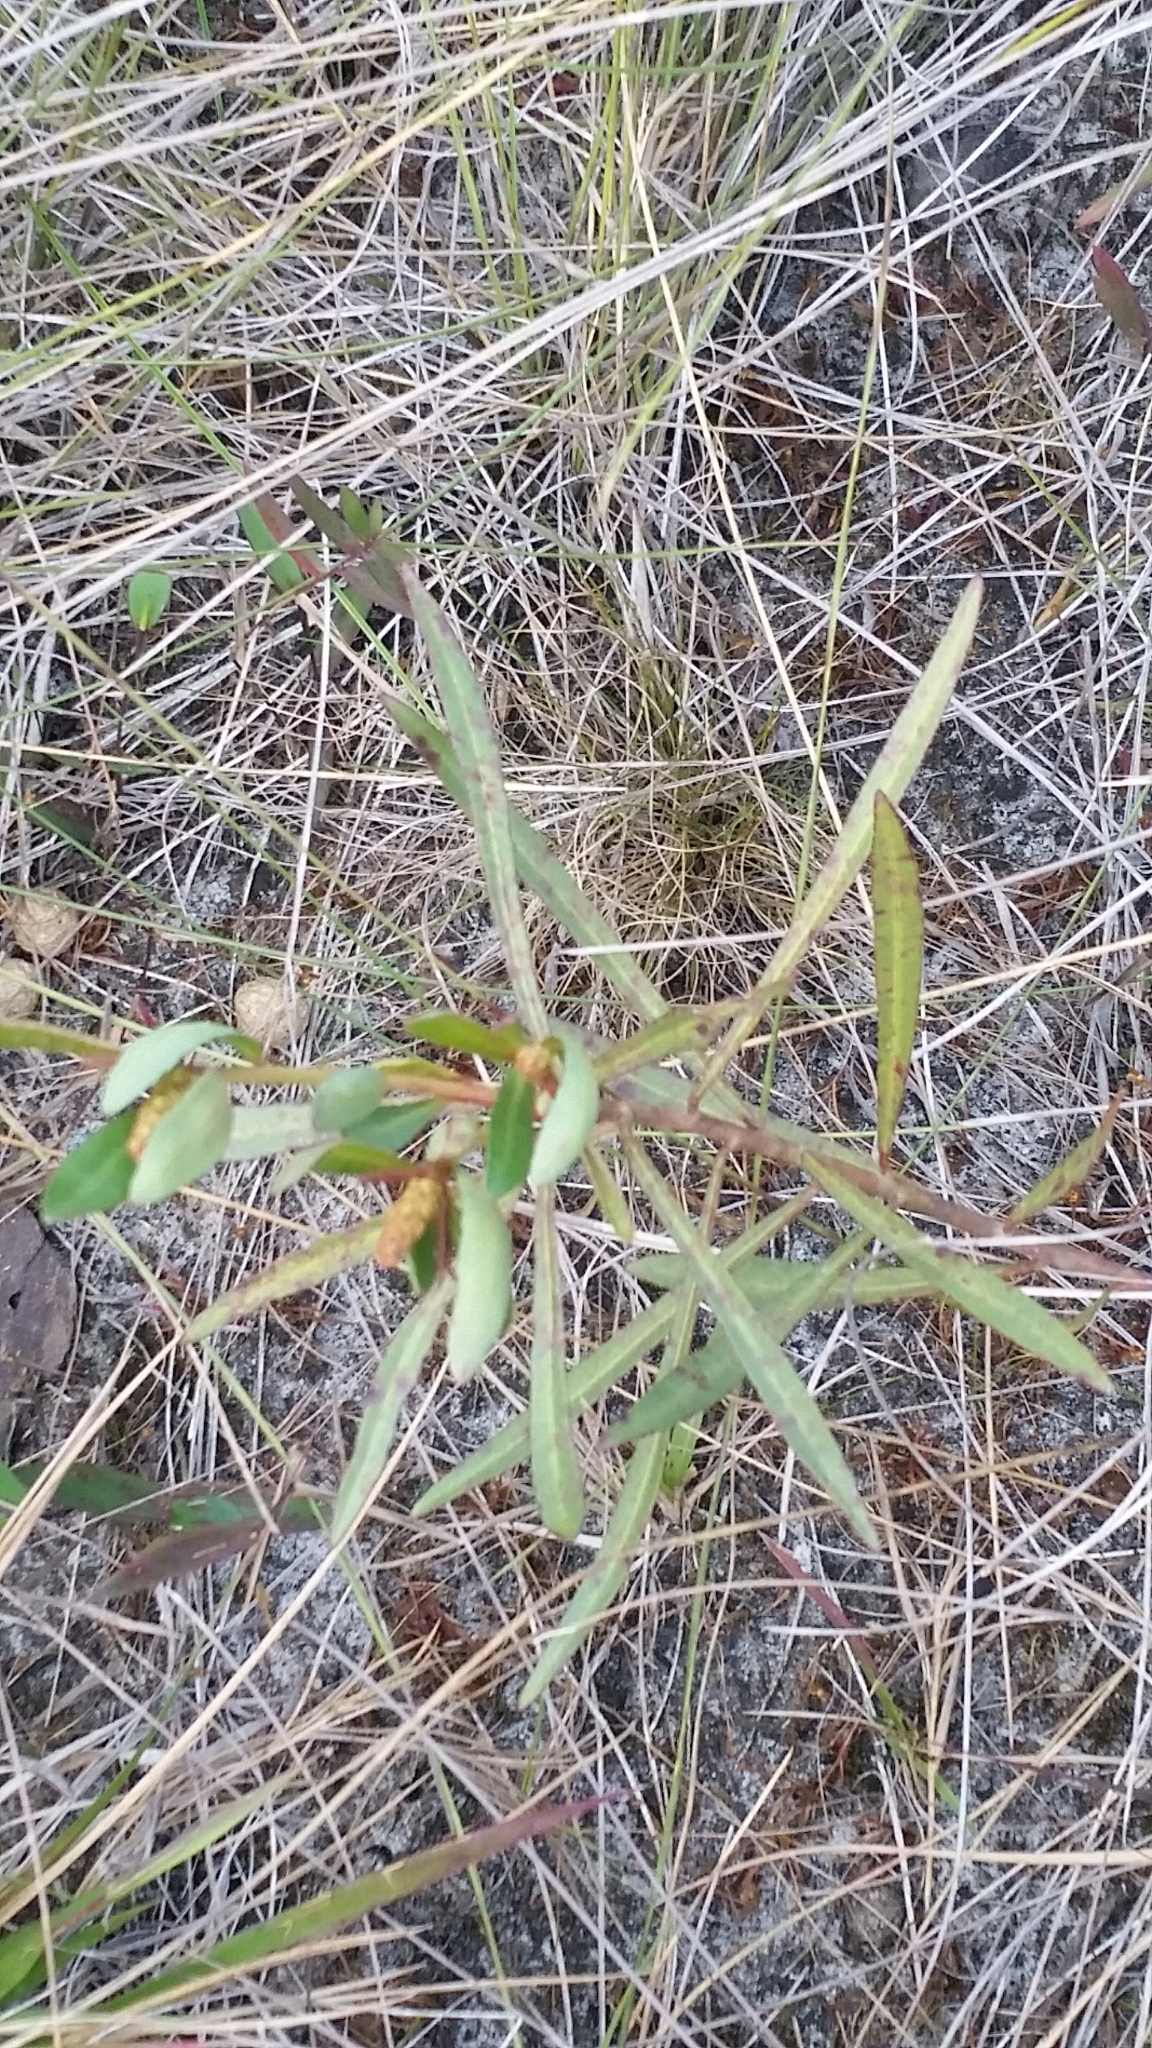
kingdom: Plantae
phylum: Tracheophyta
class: Magnoliopsida
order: Malpighiales
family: Euphorbiaceae
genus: Stillingia
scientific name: Stillingia sylvatica
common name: Queen's-delight
